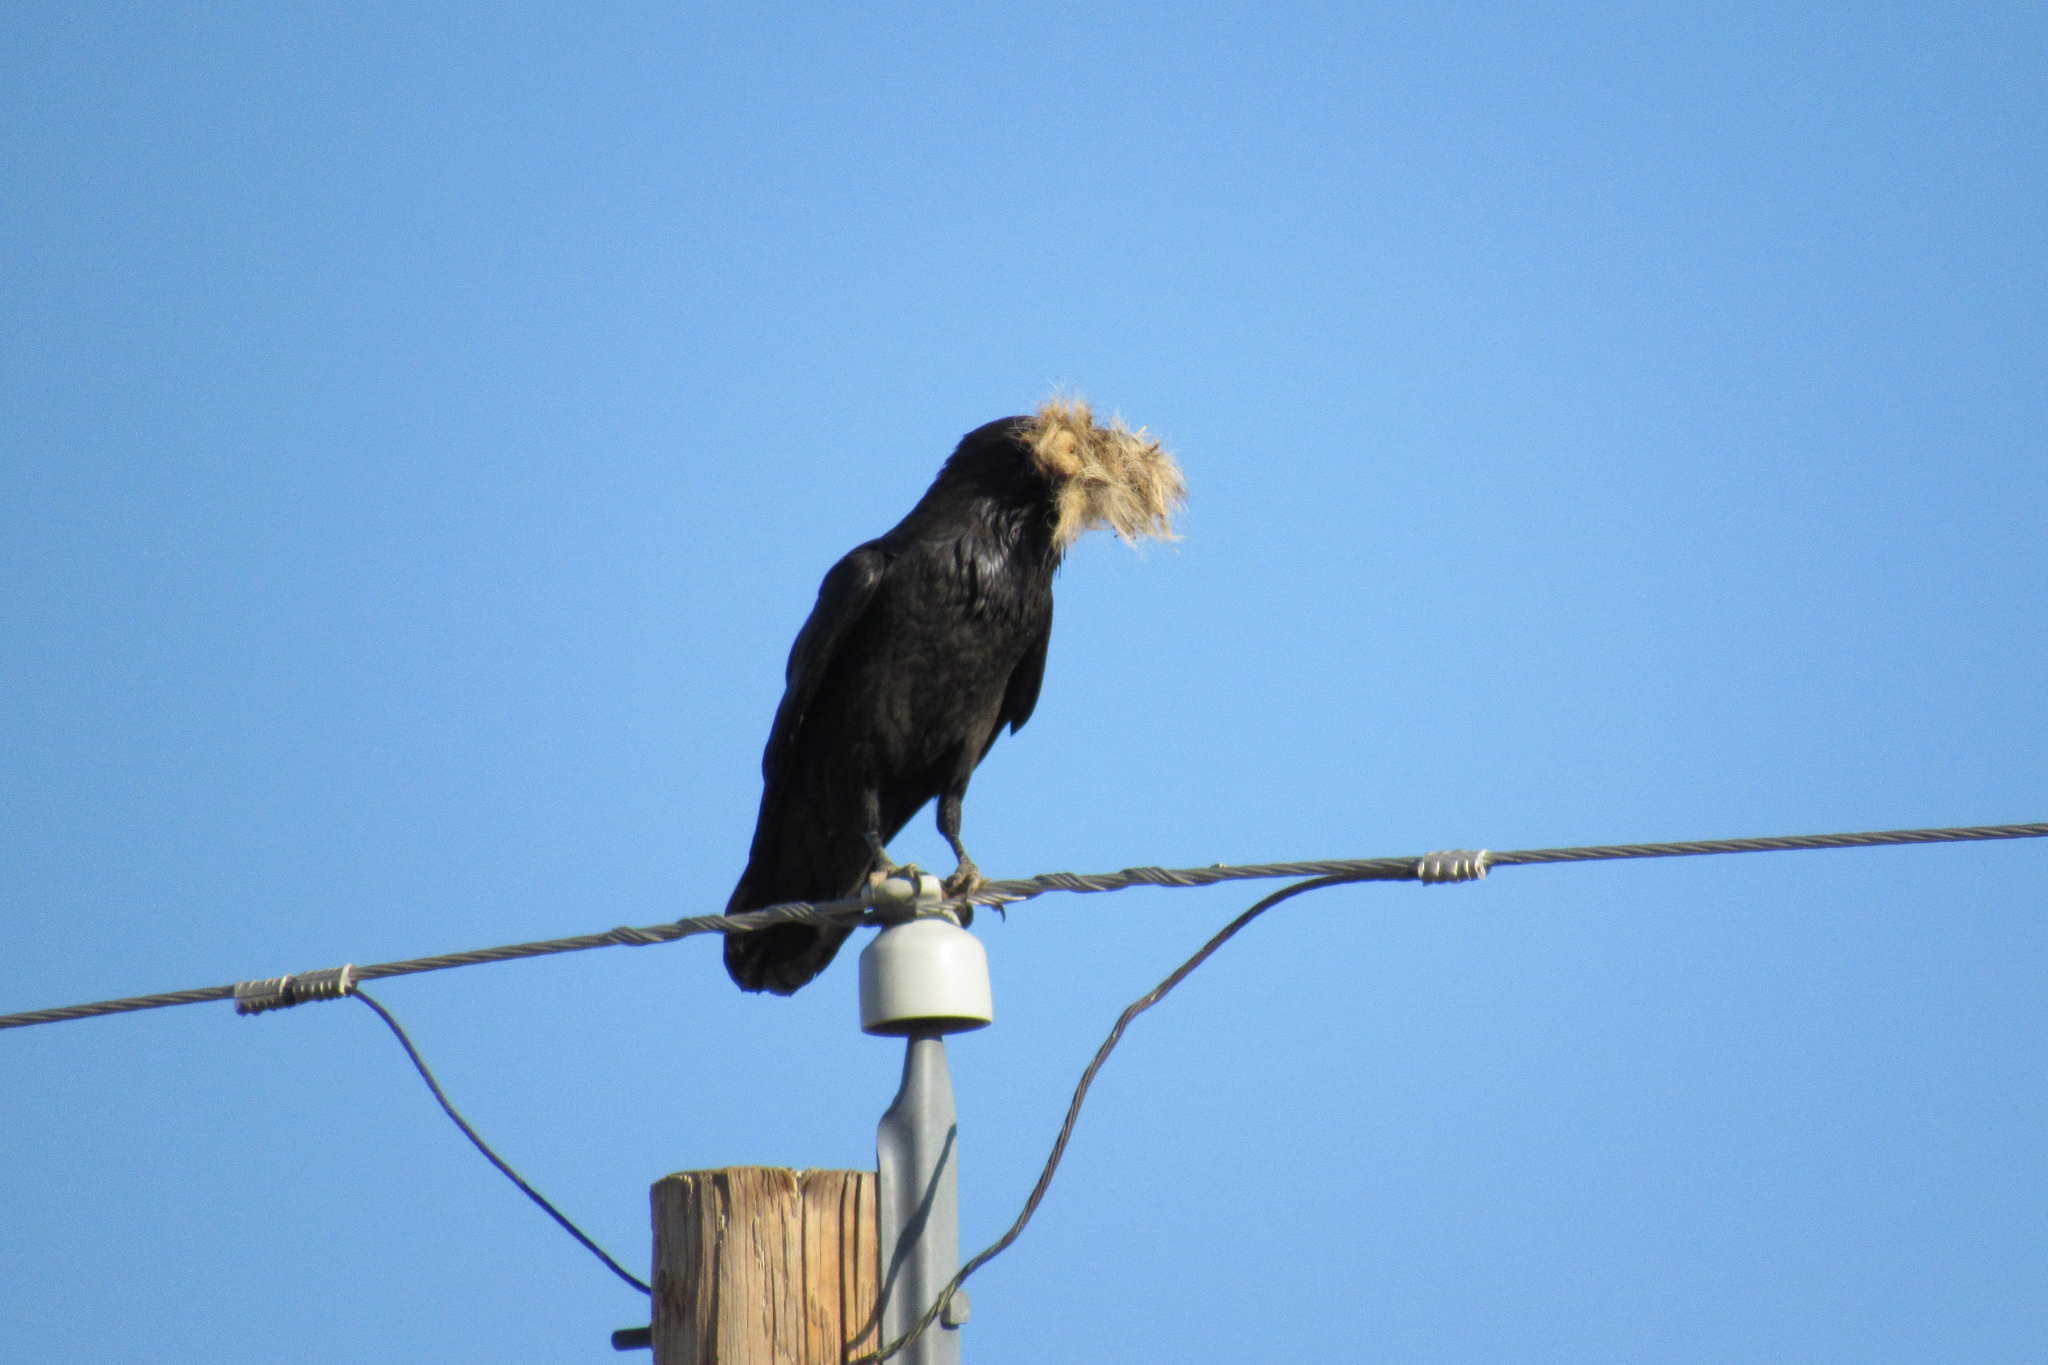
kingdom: Animalia
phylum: Chordata
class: Aves
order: Passeriformes
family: Corvidae
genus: Corvus
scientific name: Corvus corax
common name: Common raven
